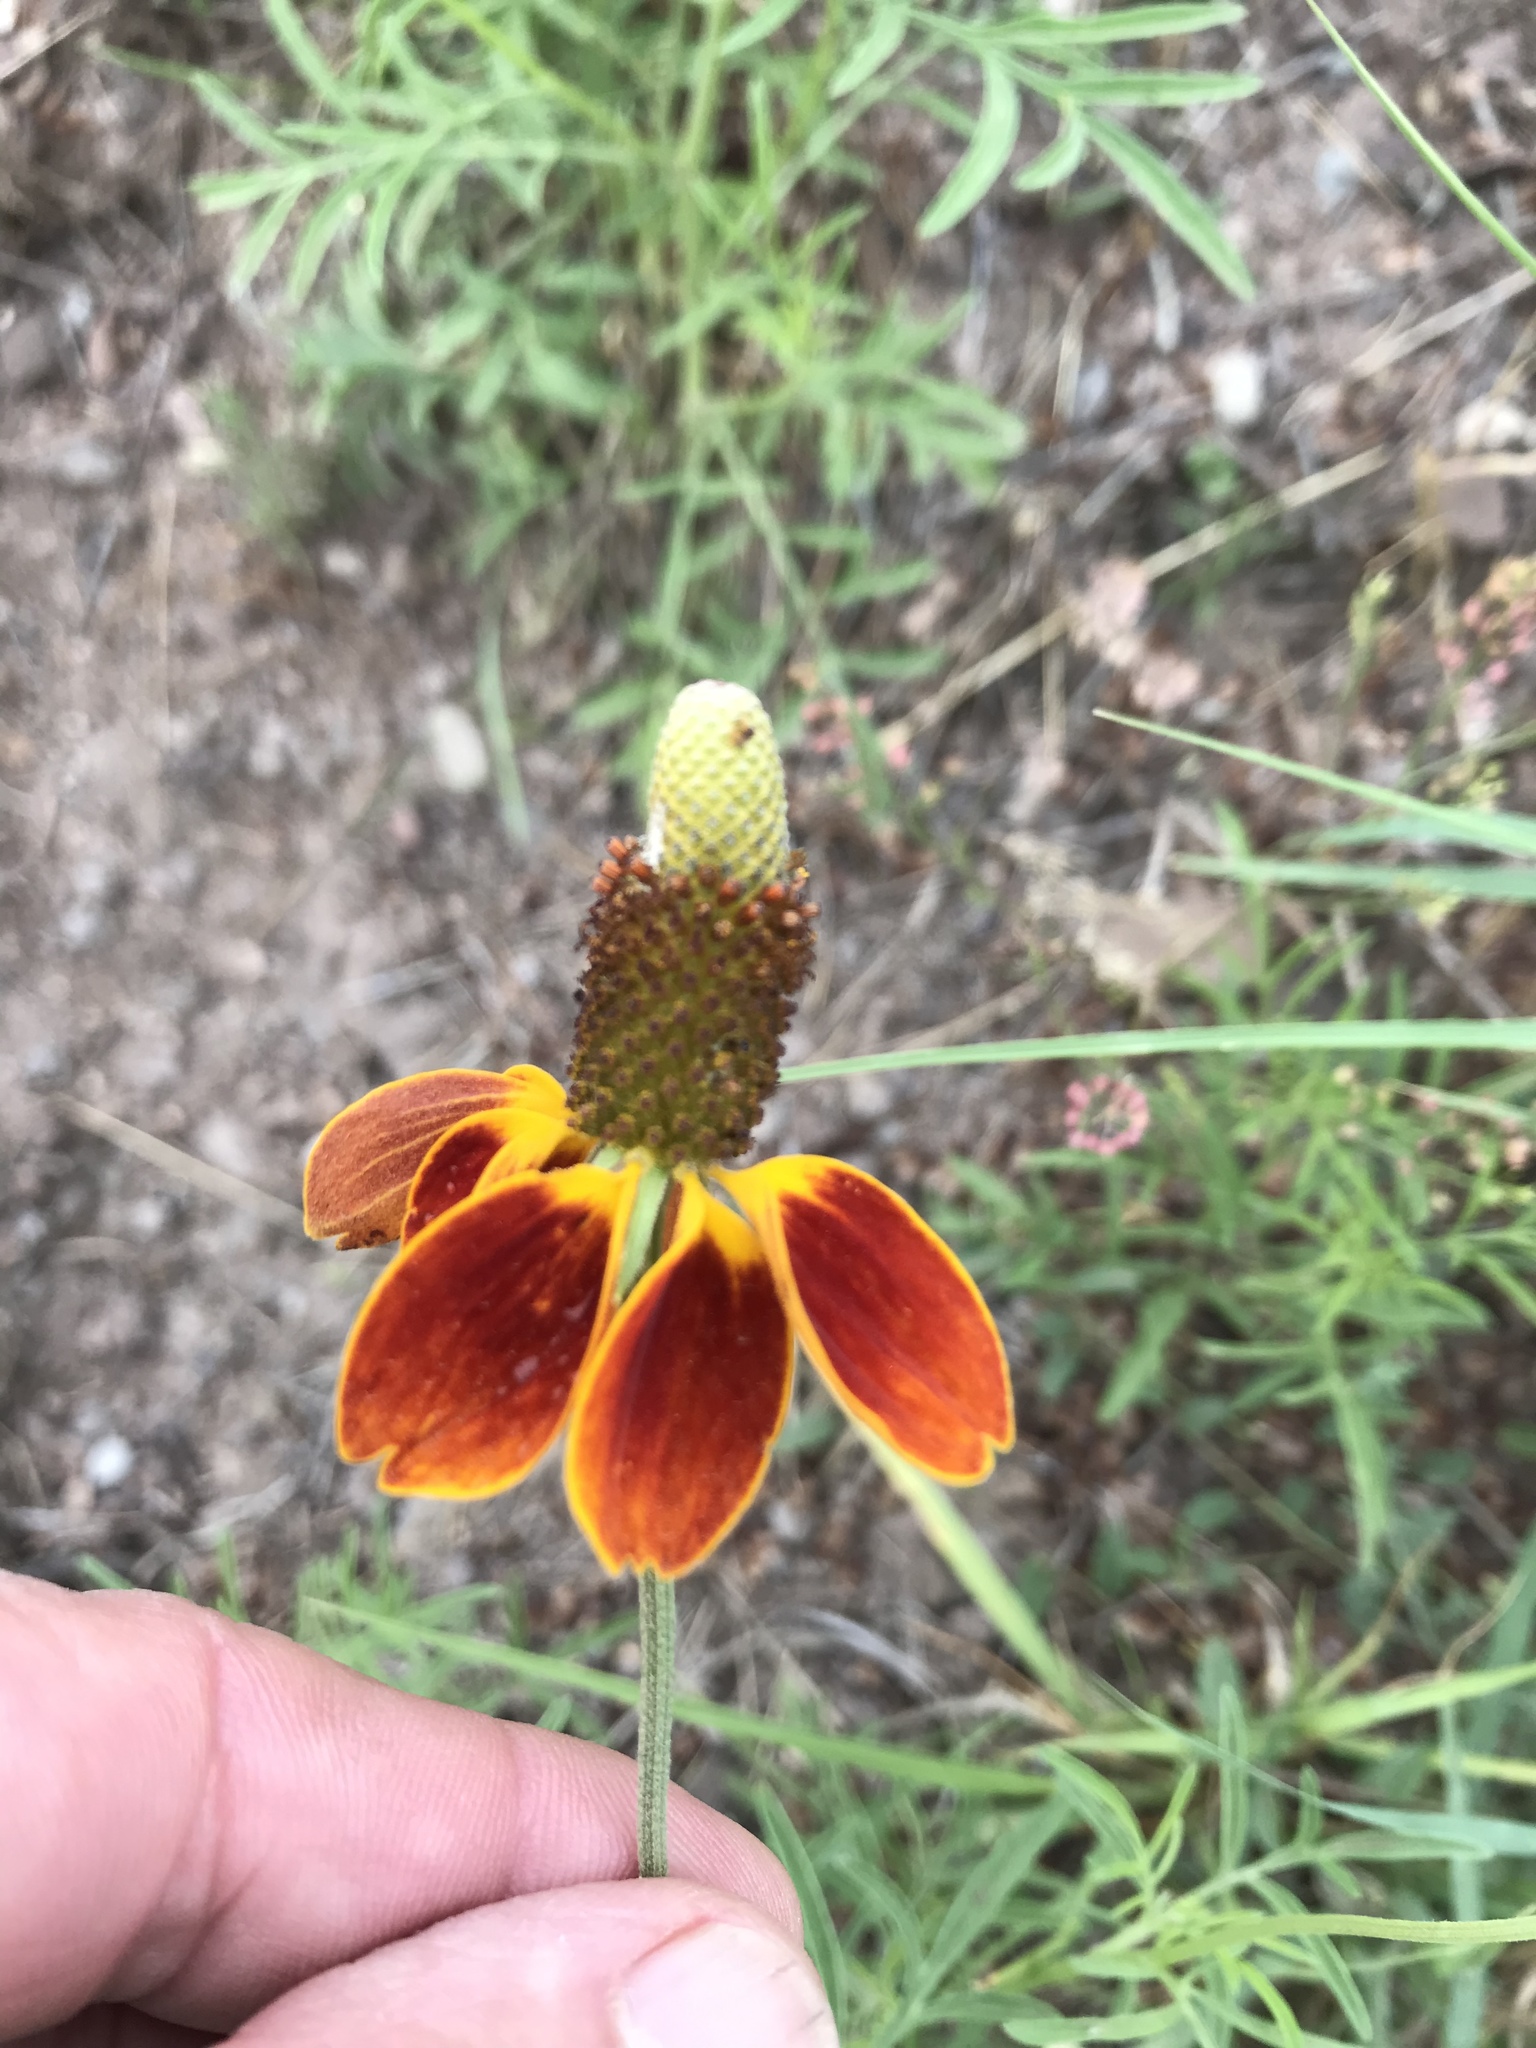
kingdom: Plantae
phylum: Tracheophyta
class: Magnoliopsida
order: Asterales
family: Asteraceae
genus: Ratibida
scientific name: Ratibida columnifera
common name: Prairie coneflower
